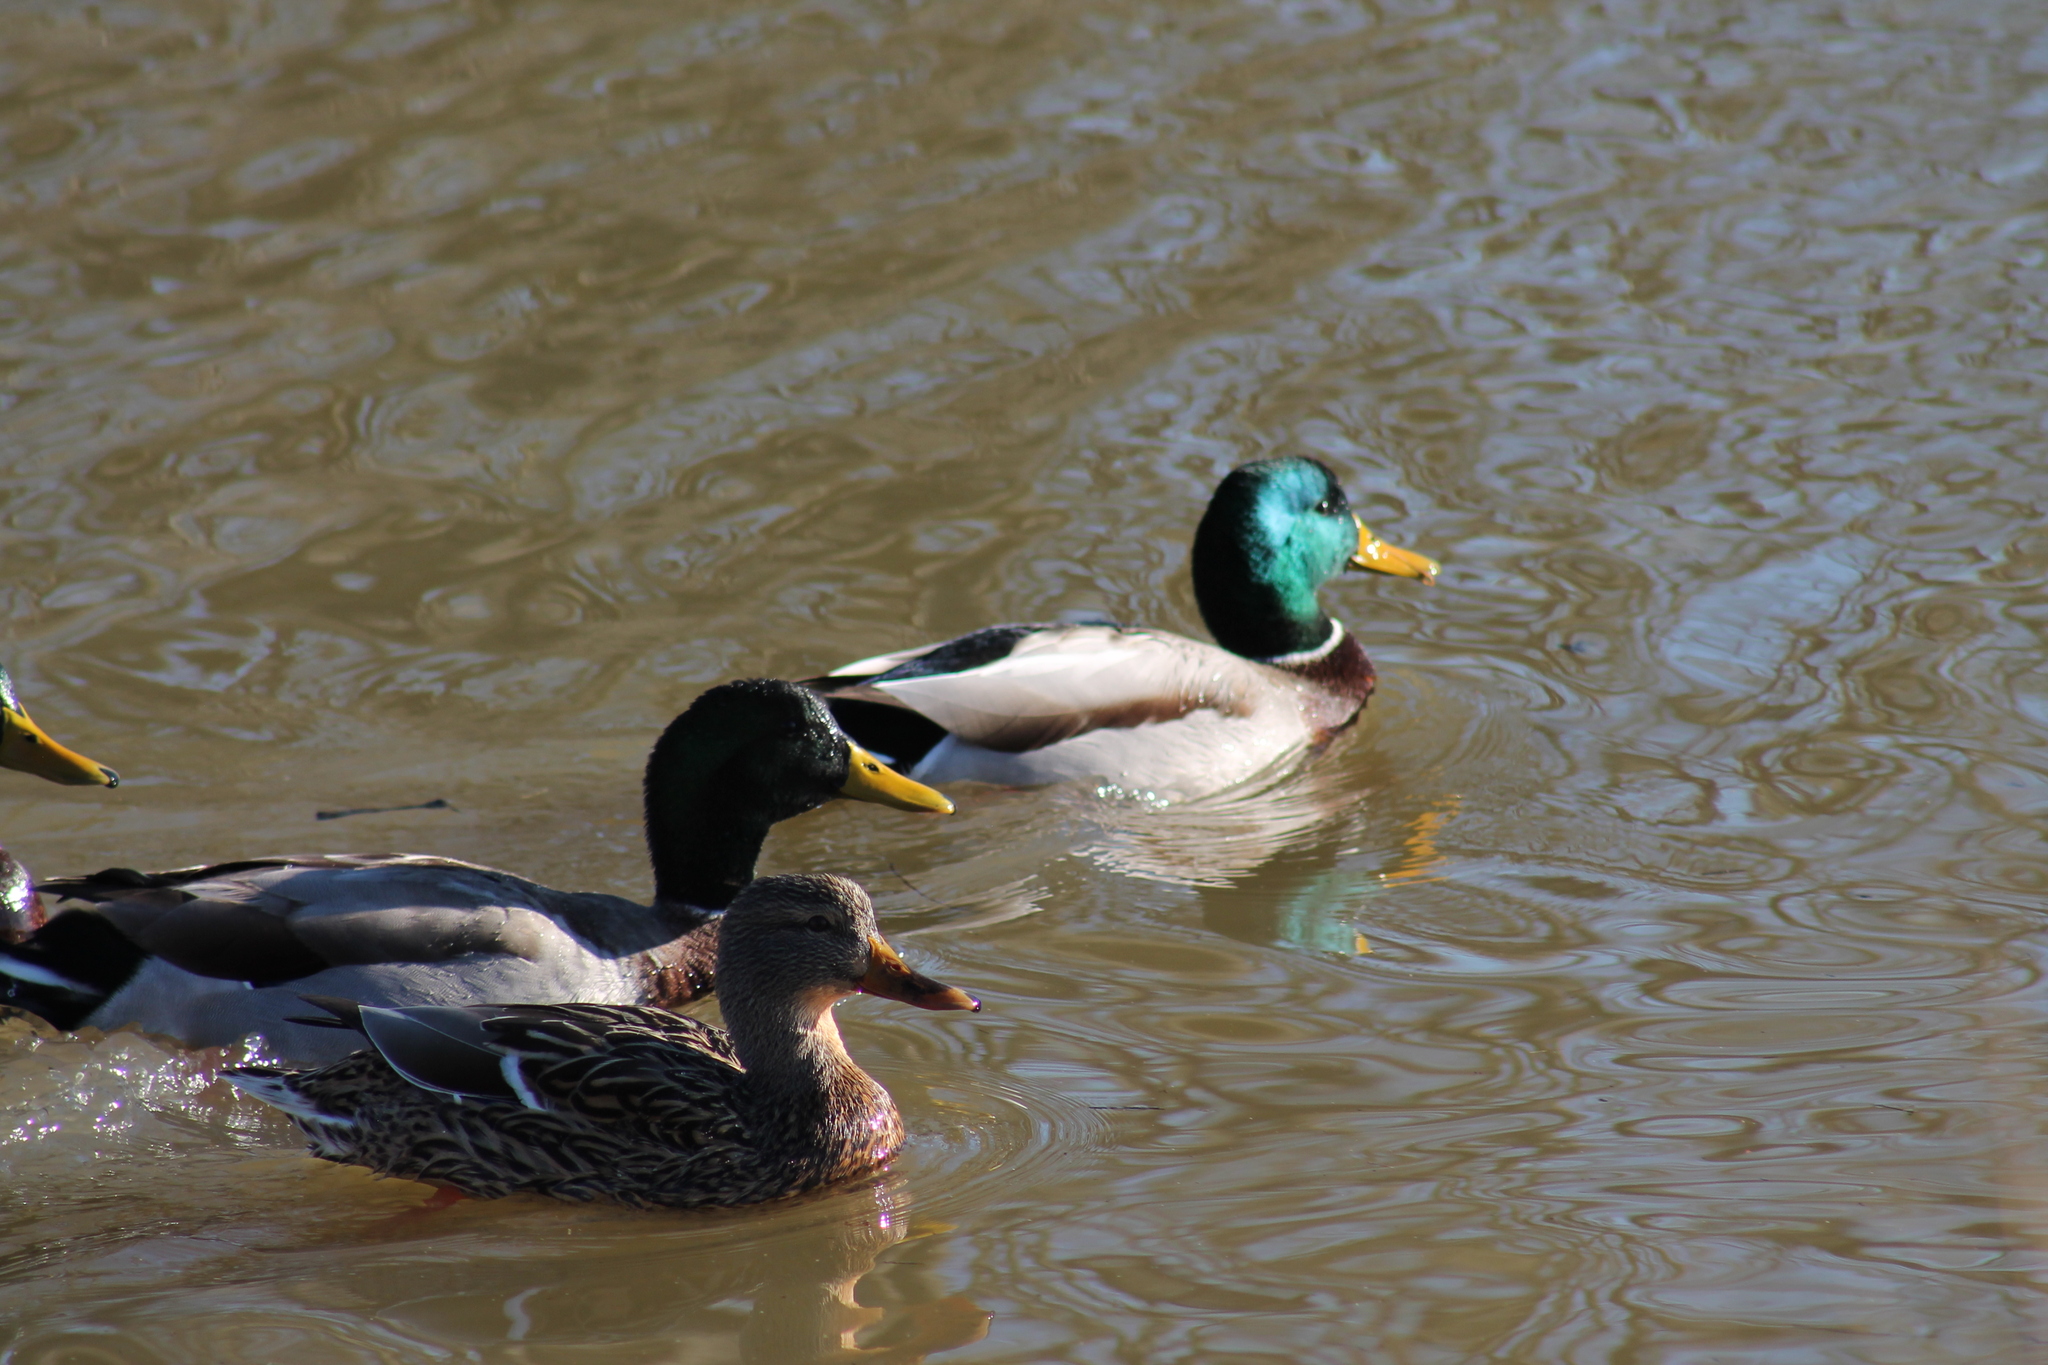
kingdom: Animalia
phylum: Chordata
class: Aves
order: Anseriformes
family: Anatidae
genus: Anas
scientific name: Anas platyrhynchos
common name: Mallard
